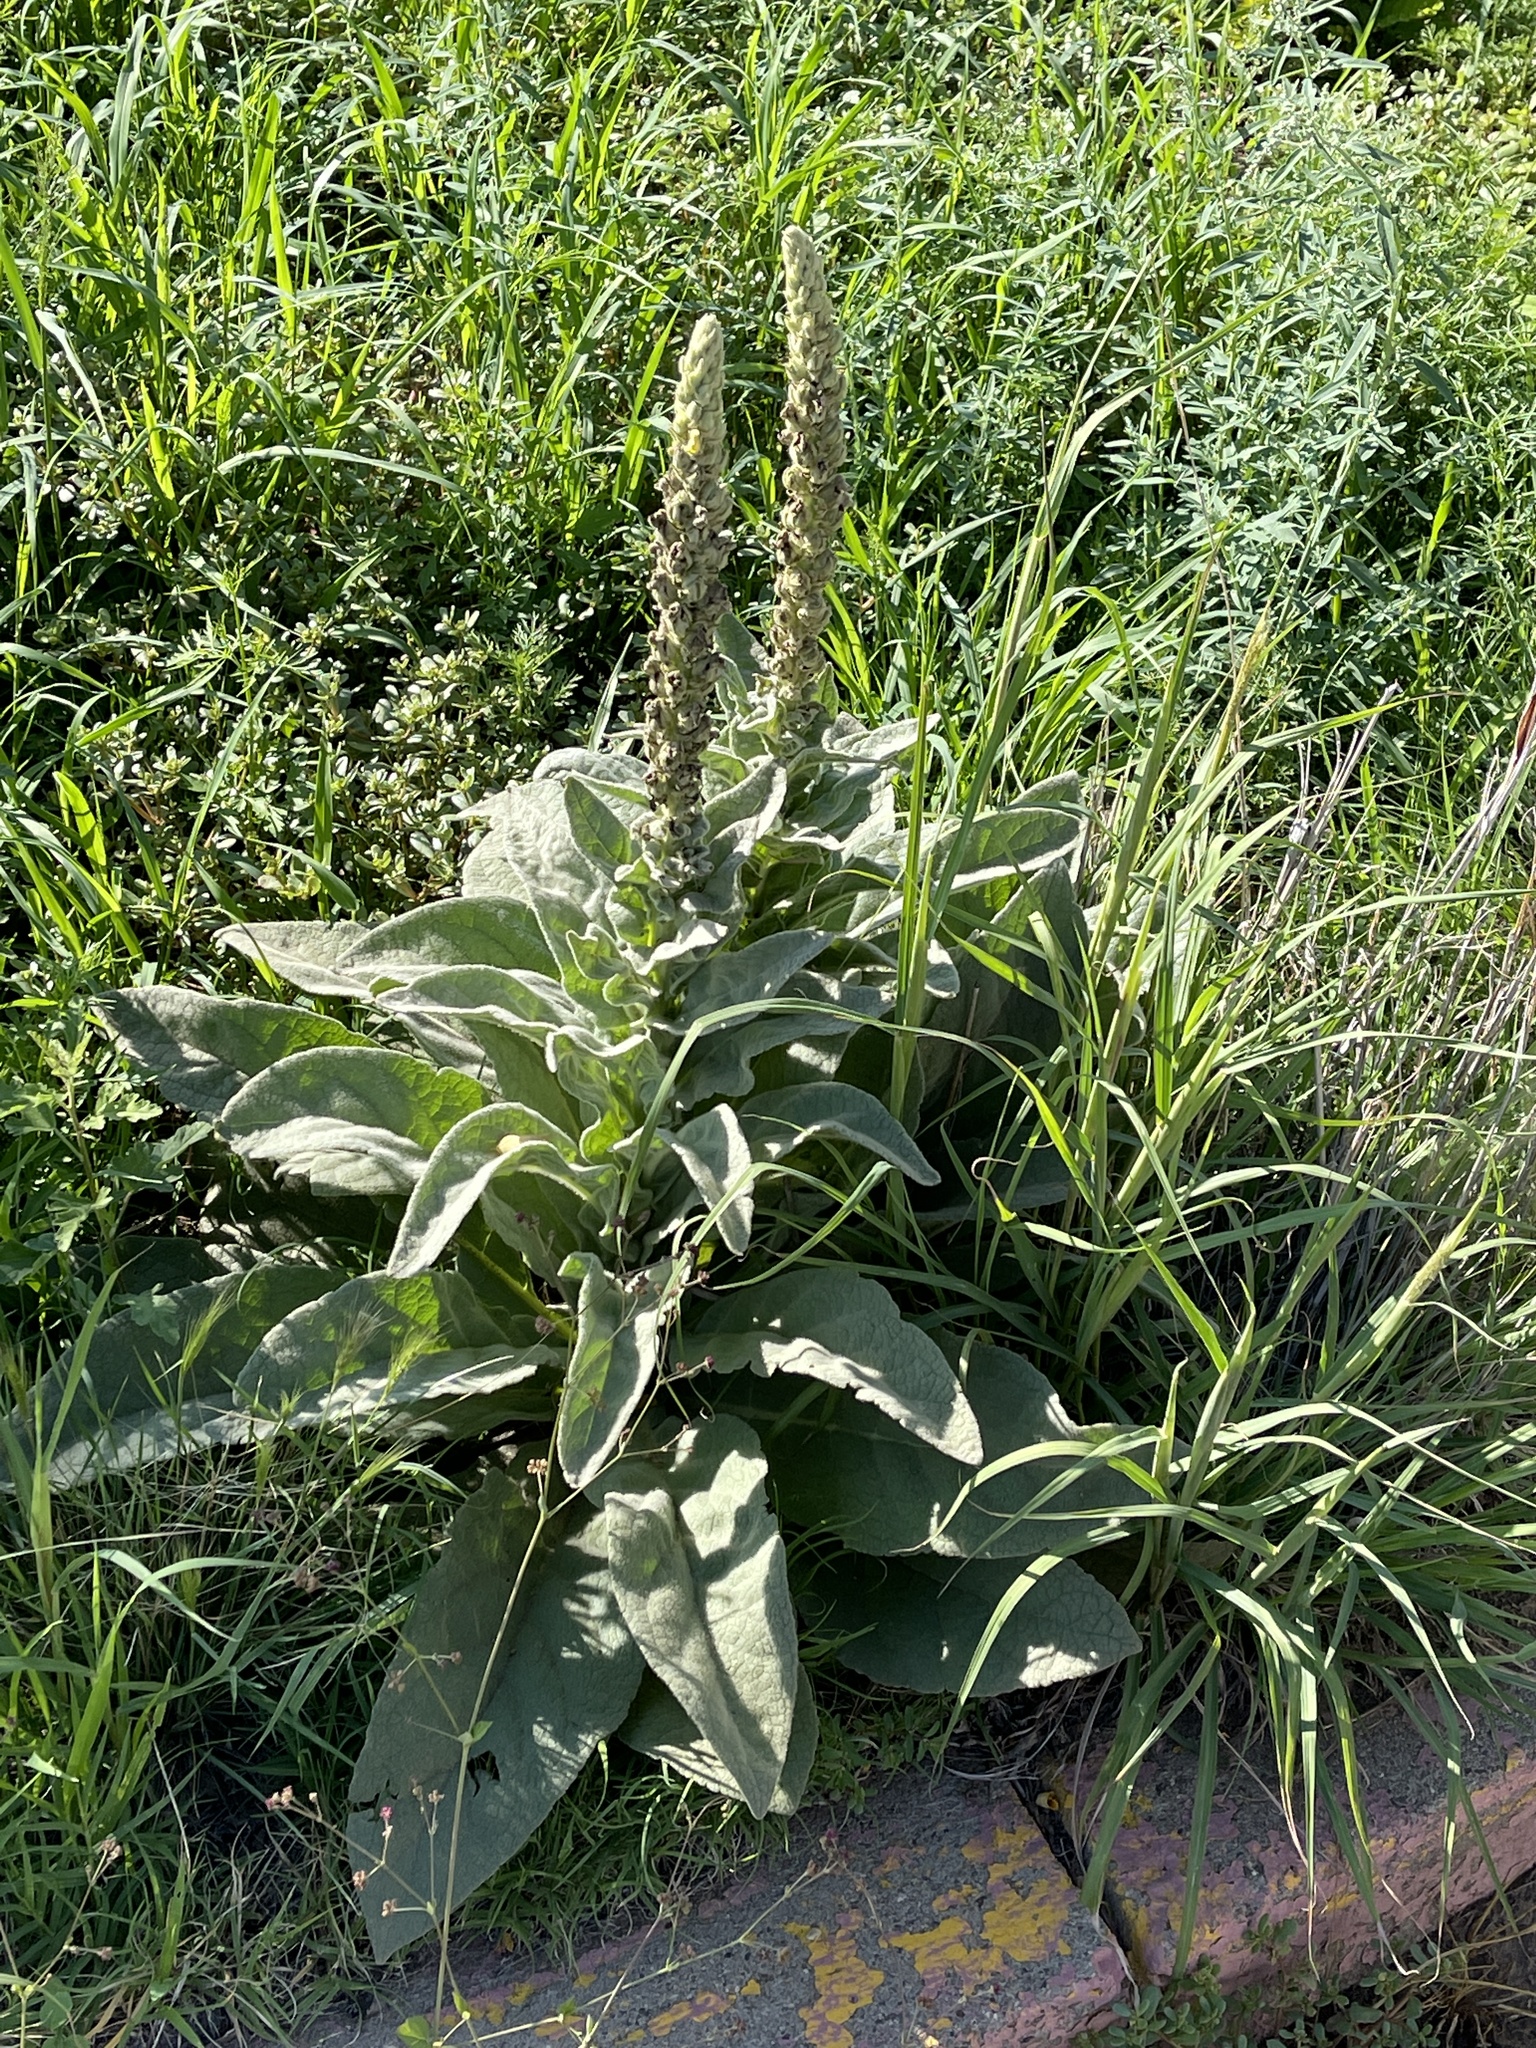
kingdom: Plantae
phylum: Tracheophyta
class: Magnoliopsida
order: Lamiales
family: Scrophulariaceae
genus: Verbascum
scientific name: Verbascum thapsus
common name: Common mullein
